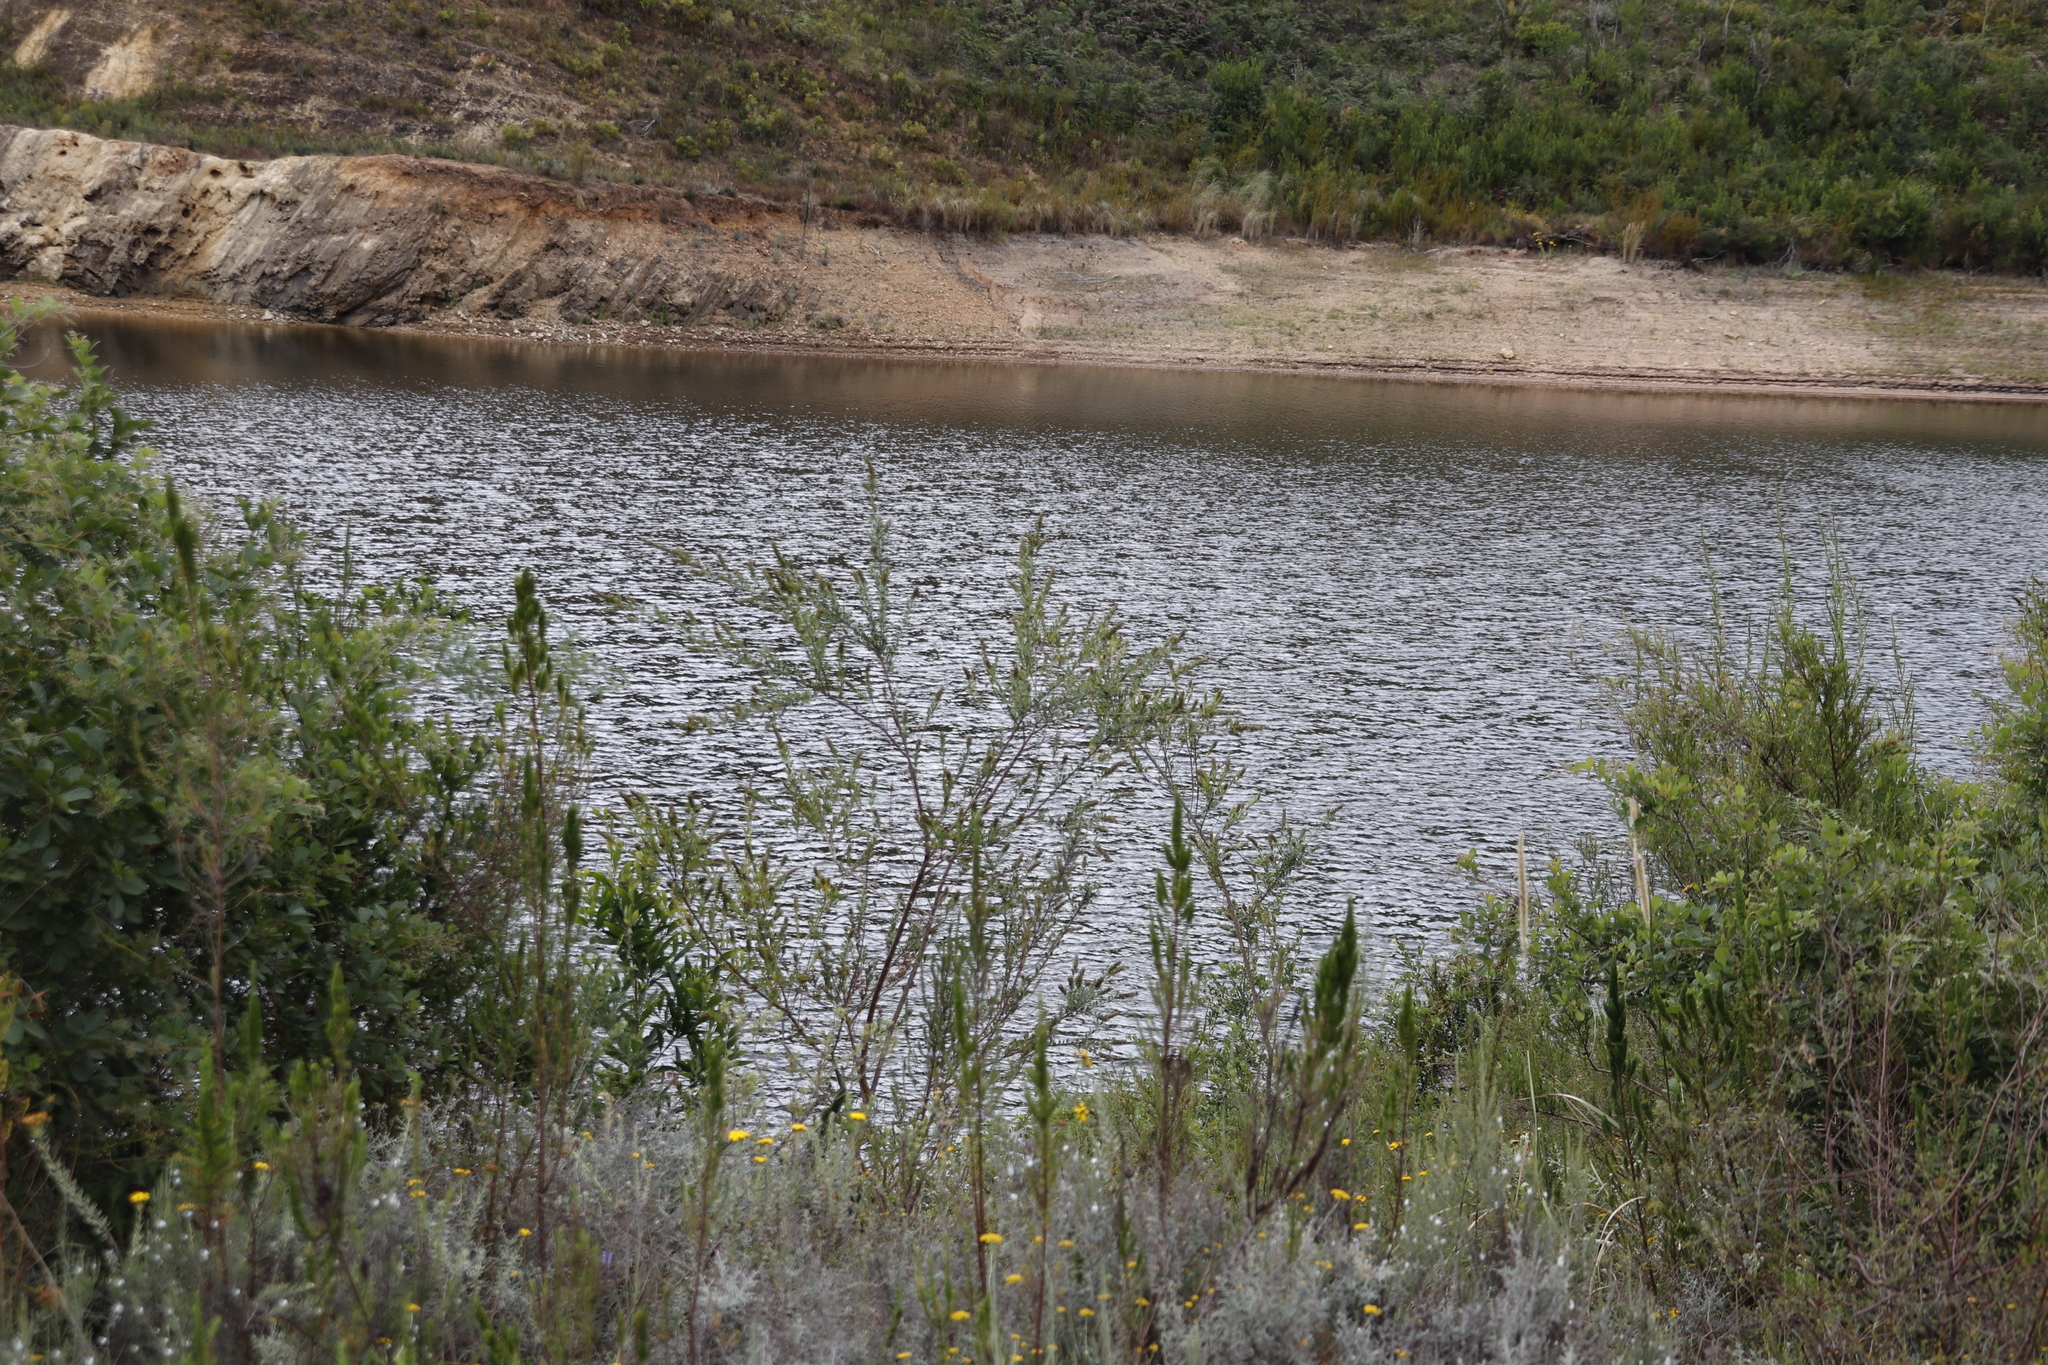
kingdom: Plantae
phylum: Tracheophyta
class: Magnoliopsida
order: Fabales
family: Fabaceae
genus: Psoralea
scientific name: Psoralea spicata
